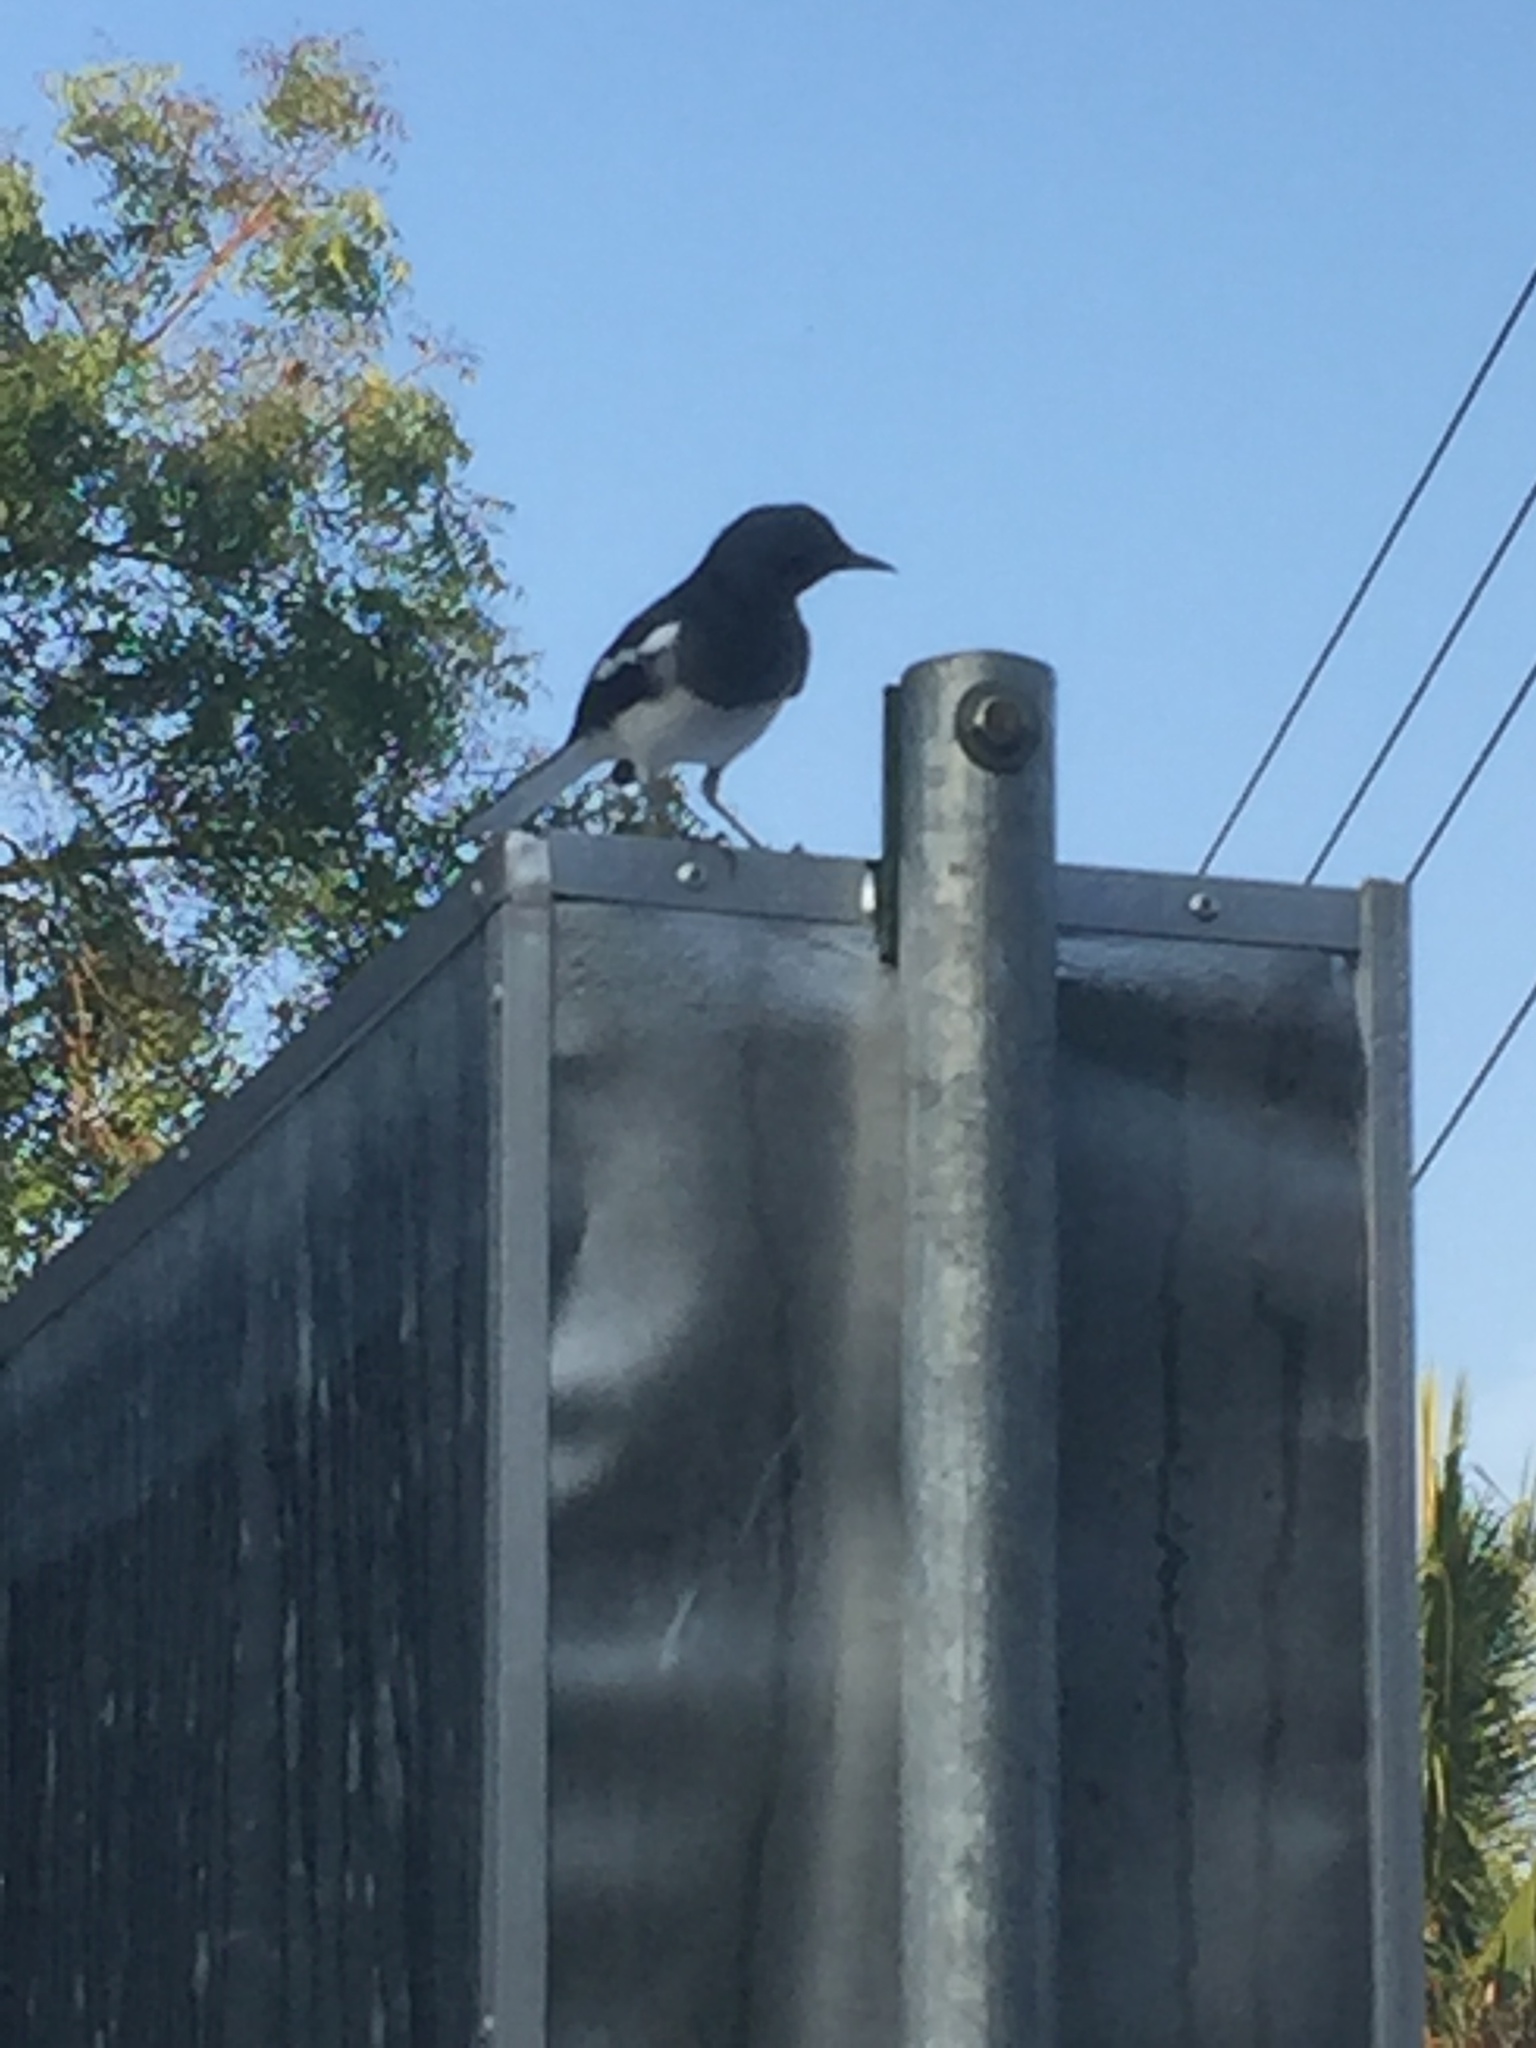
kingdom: Animalia
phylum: Chordata
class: Aves
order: Passeriformes
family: Muscicapidae
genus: Copsychus
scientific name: Copsychus saularis
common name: Oriental magpie-robin
